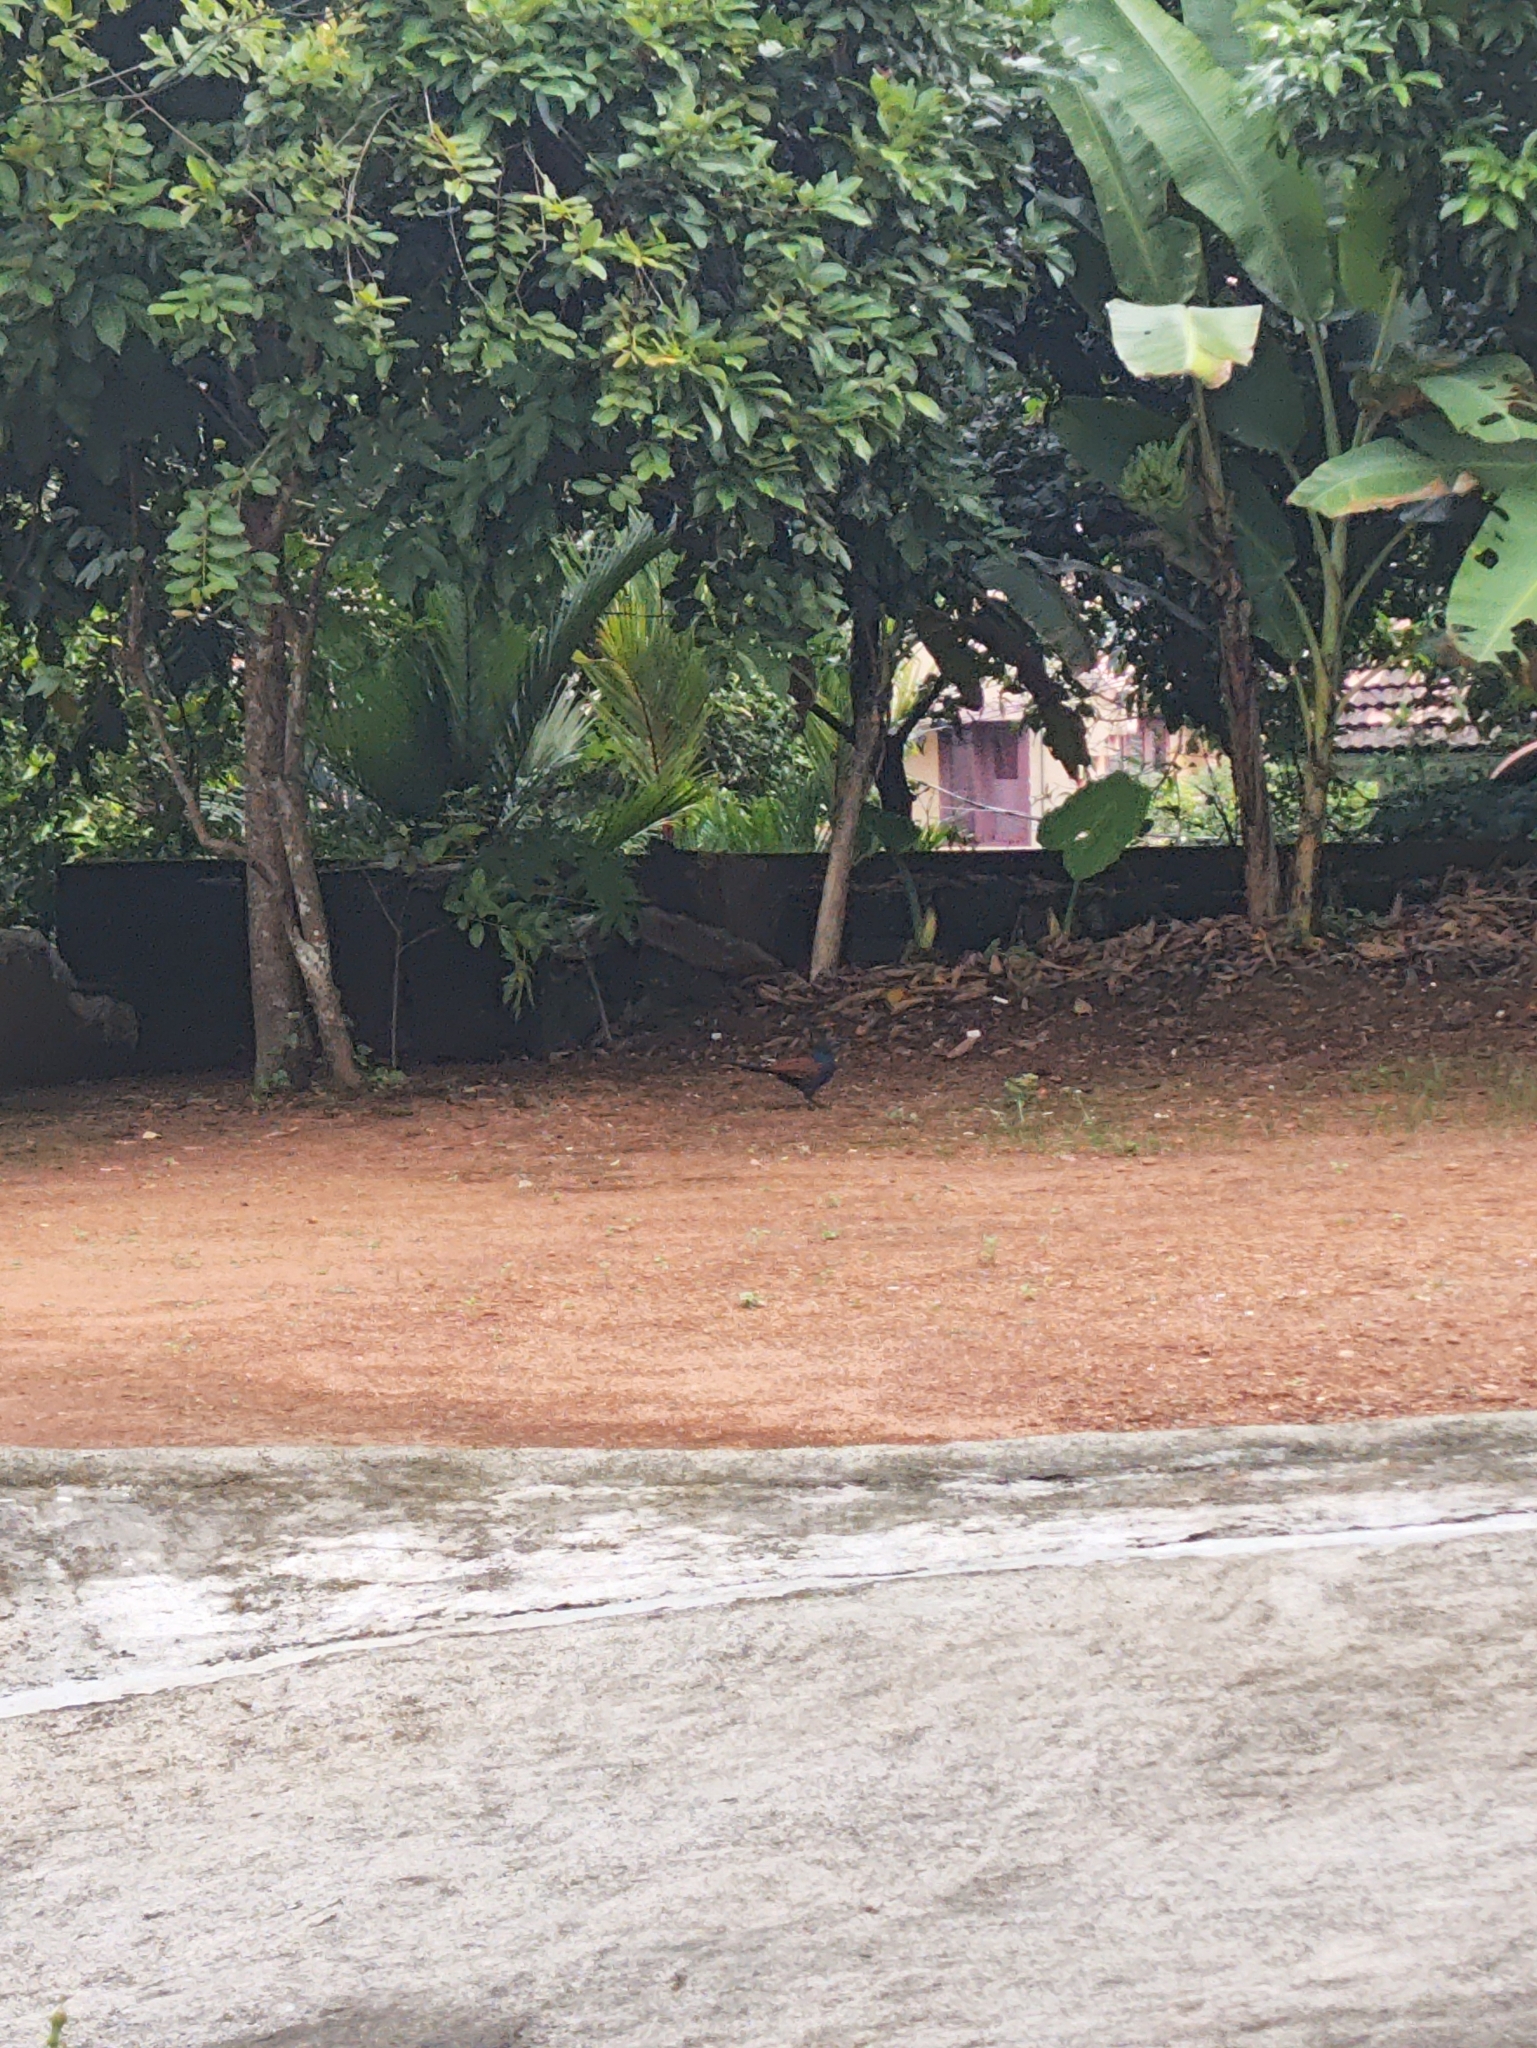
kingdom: Animalia
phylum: Chordata
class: Aves
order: Cuculiformes
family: Cuculidae
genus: Centropus
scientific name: Centropus sinensis
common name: Greater coucal
